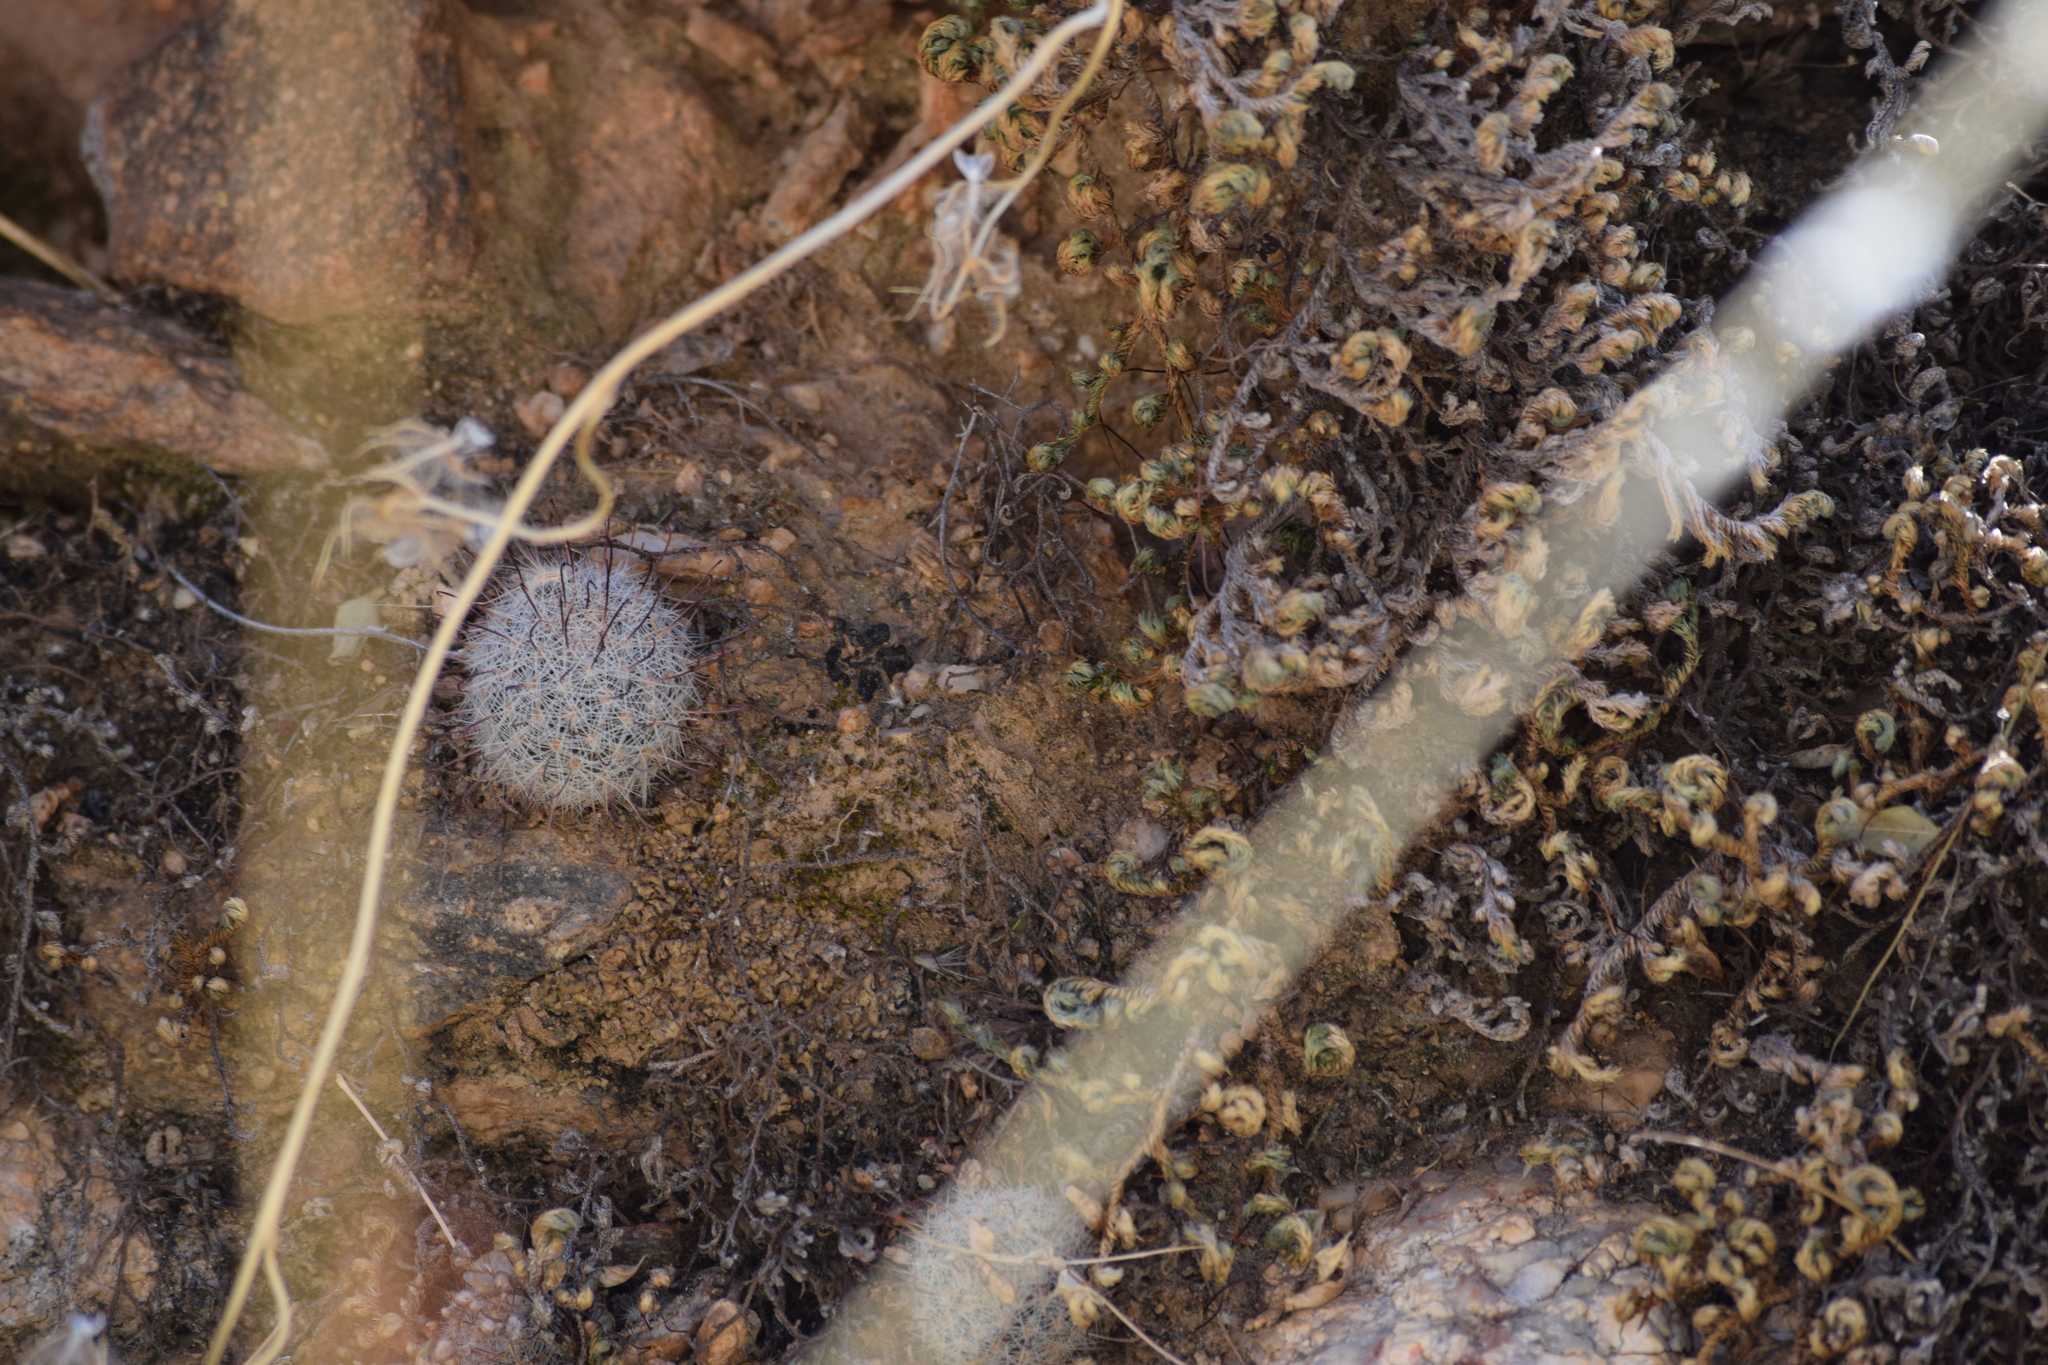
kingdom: Plantae
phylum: Tracheophyta
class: Magnoliopsida
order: Caryophyllales
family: Cactaceae
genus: Cochemiea
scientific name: Cochemiea grahamii
